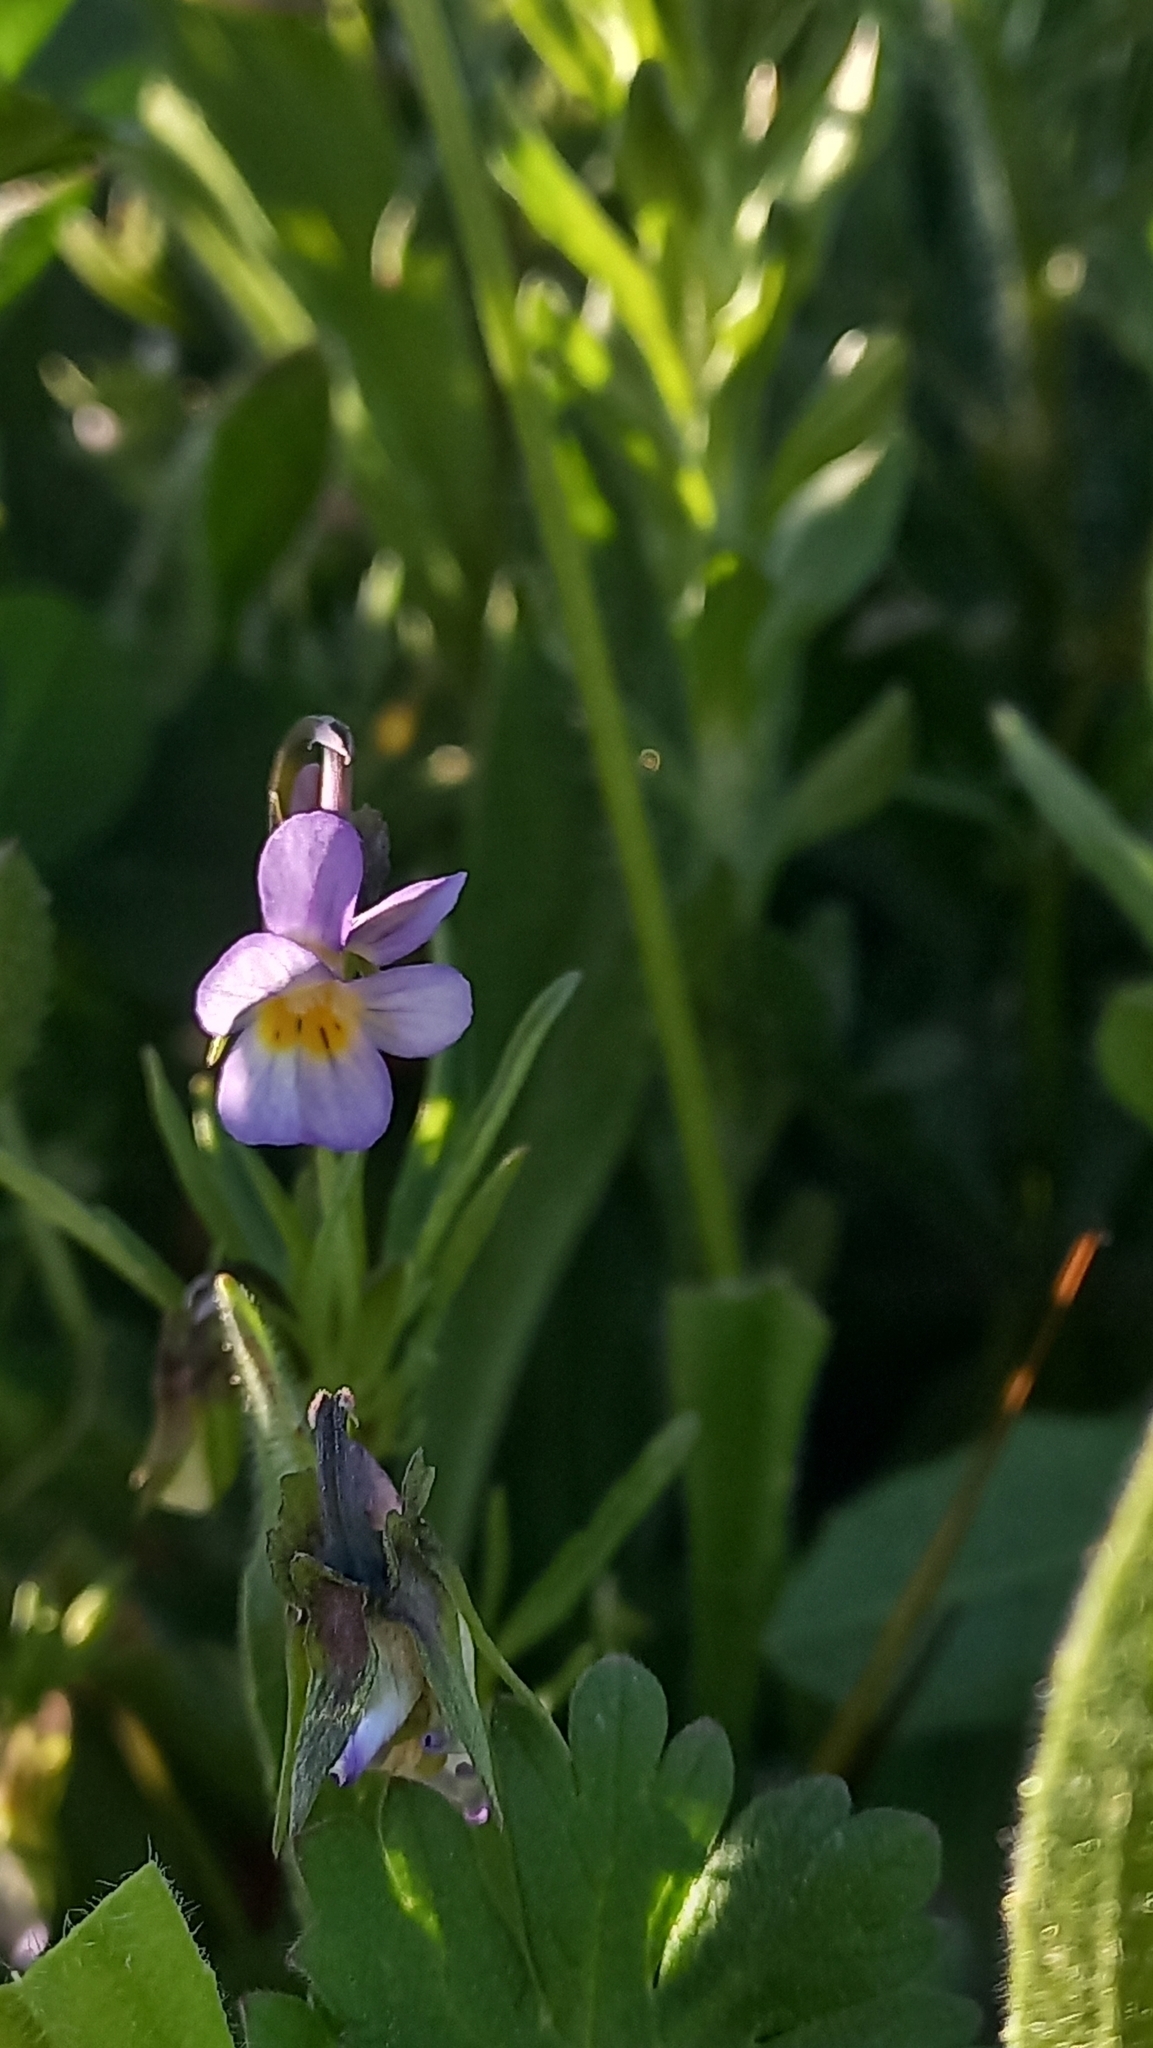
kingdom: Plantae
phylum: Tracheophyta
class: Magnoliopsida
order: Malpighiales
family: Violaceae
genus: Viola
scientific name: Viola kitaibeliana
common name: Dwarf pansy
